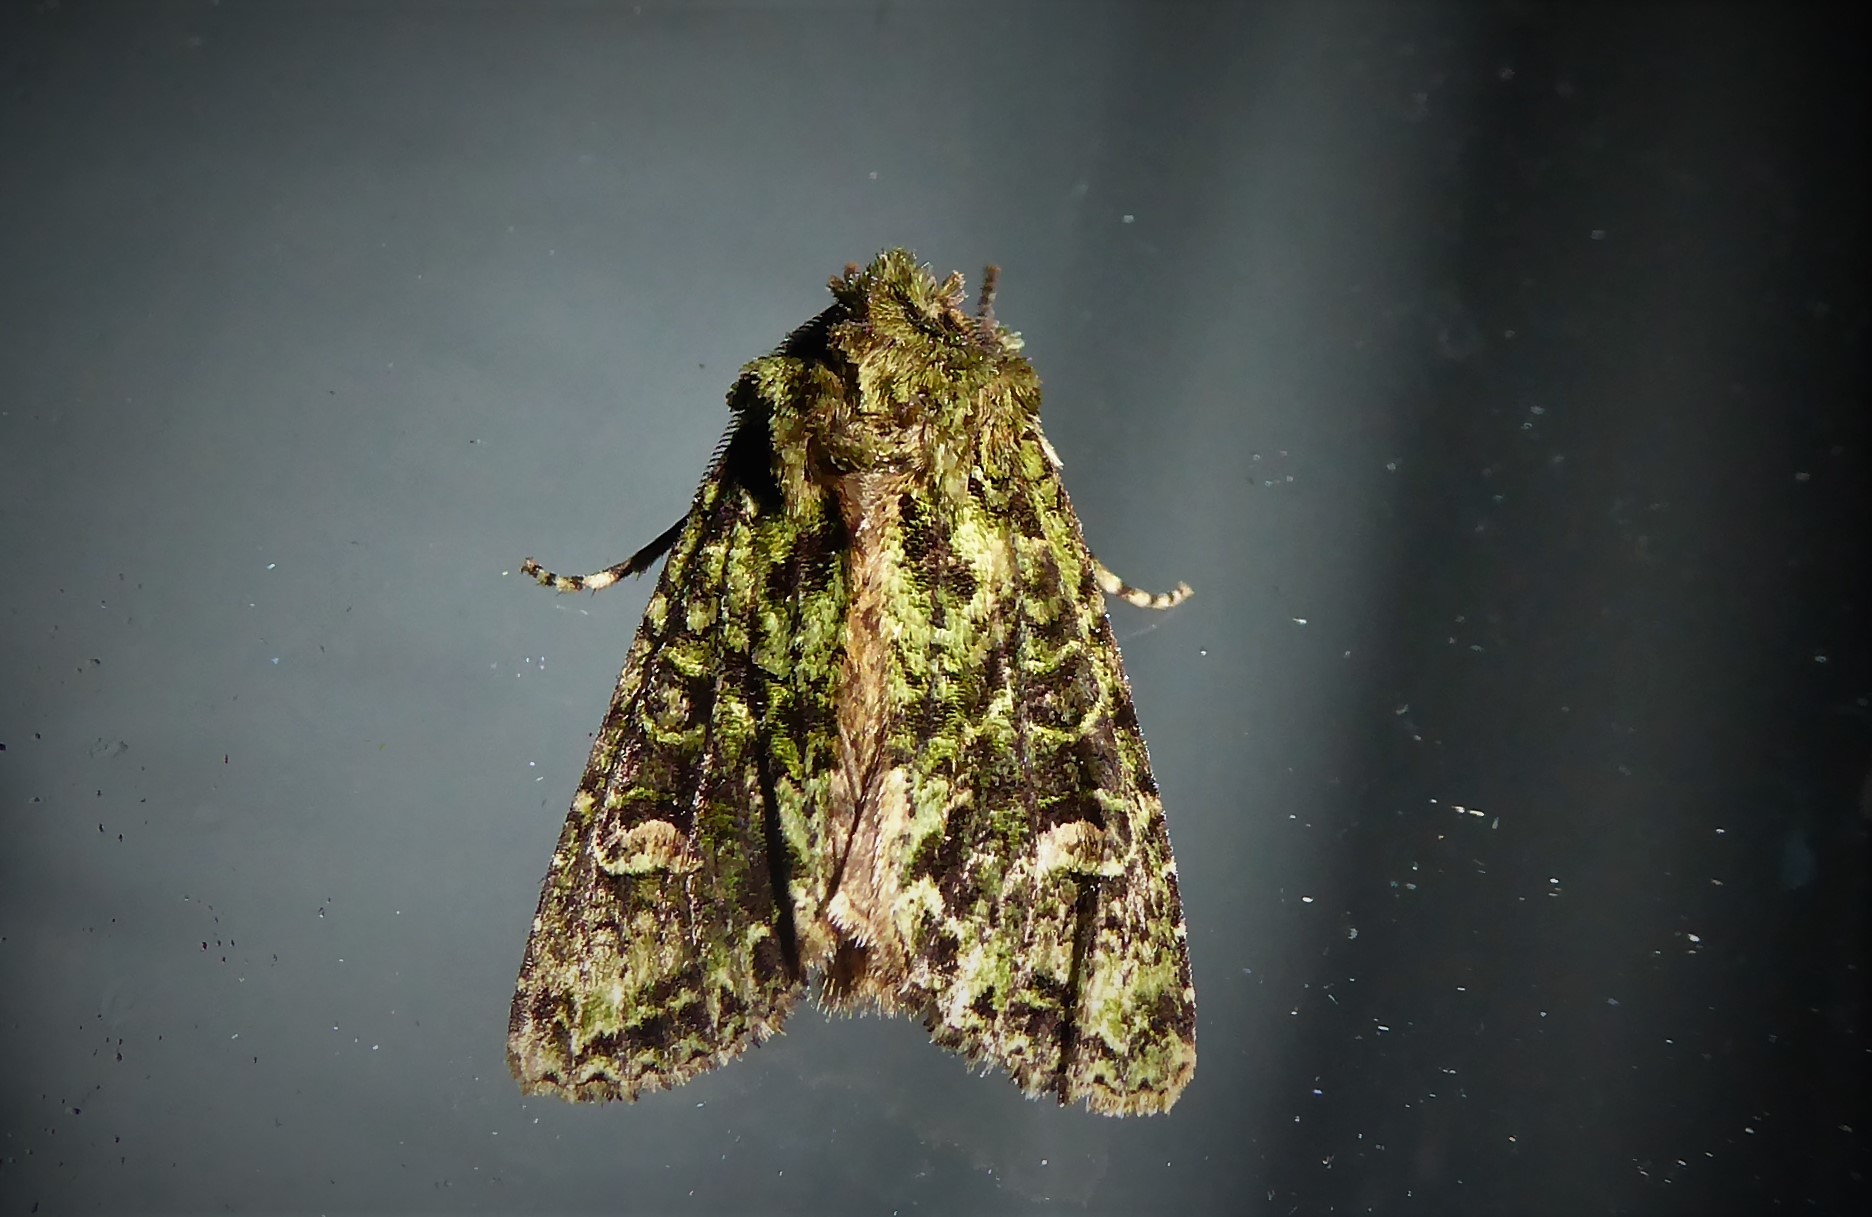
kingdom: Animalia
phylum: Arthropoda
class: Insecta
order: Lepidoptera
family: Noctuidae
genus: Ichneutica
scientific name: Ichneutica
